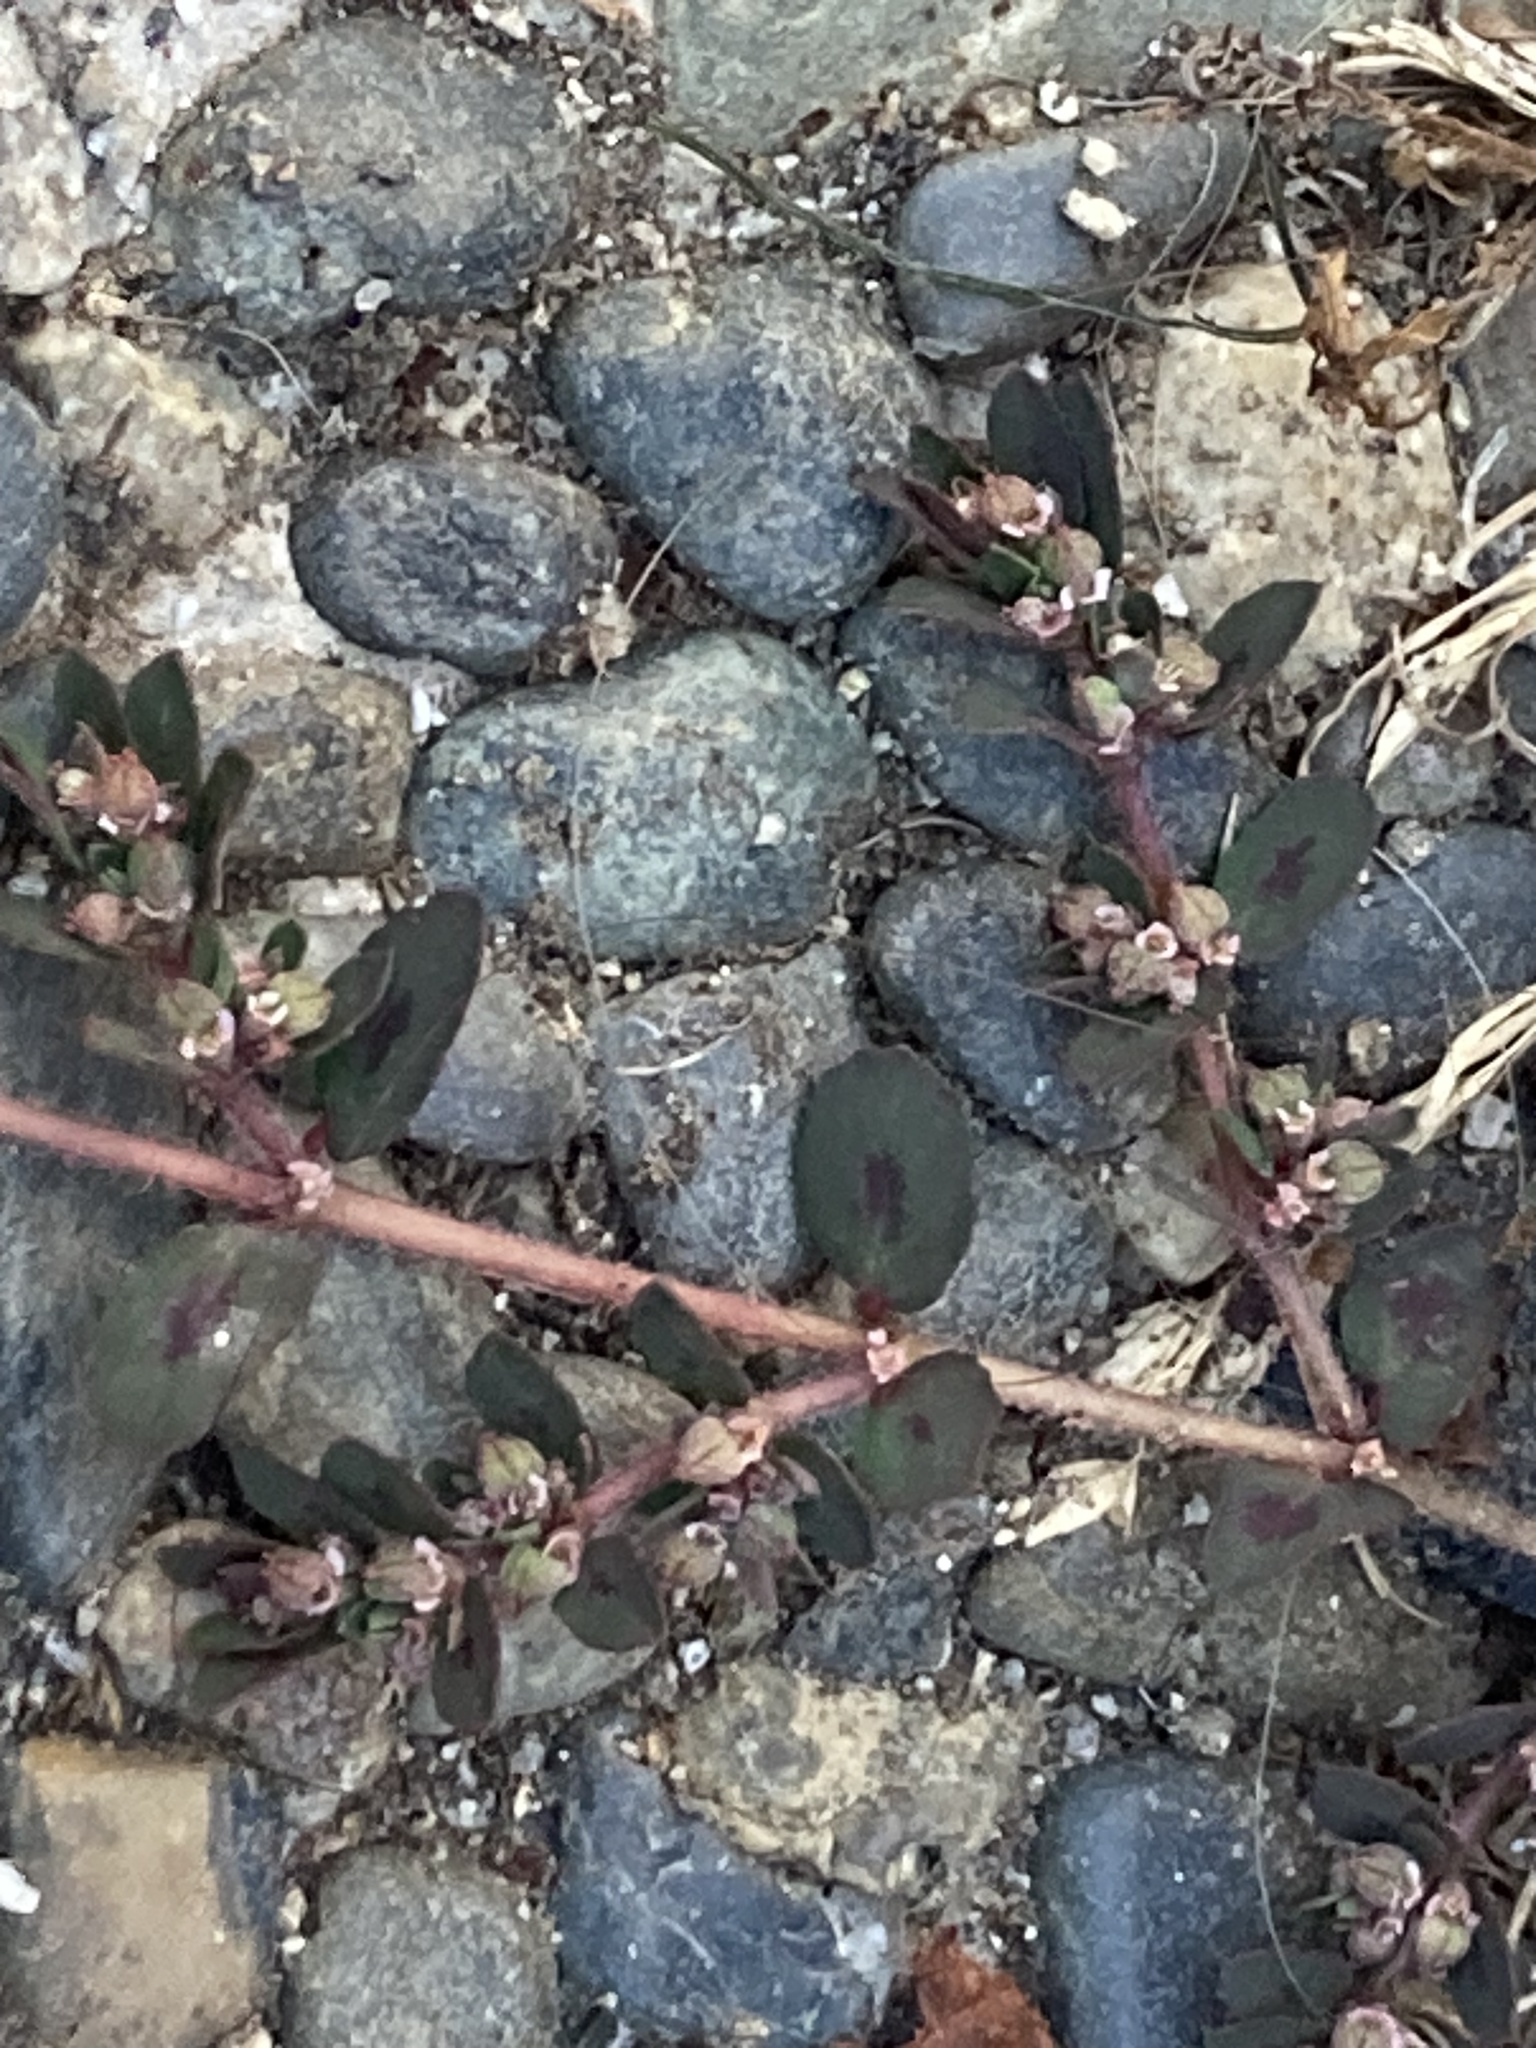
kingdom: Plantae
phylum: Tracheophyta
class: Magnoliopsida
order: Malpighiales
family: Euphorbiaceae
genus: Euphorbia
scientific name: Euphorbia maculata
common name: Spotted spurge
